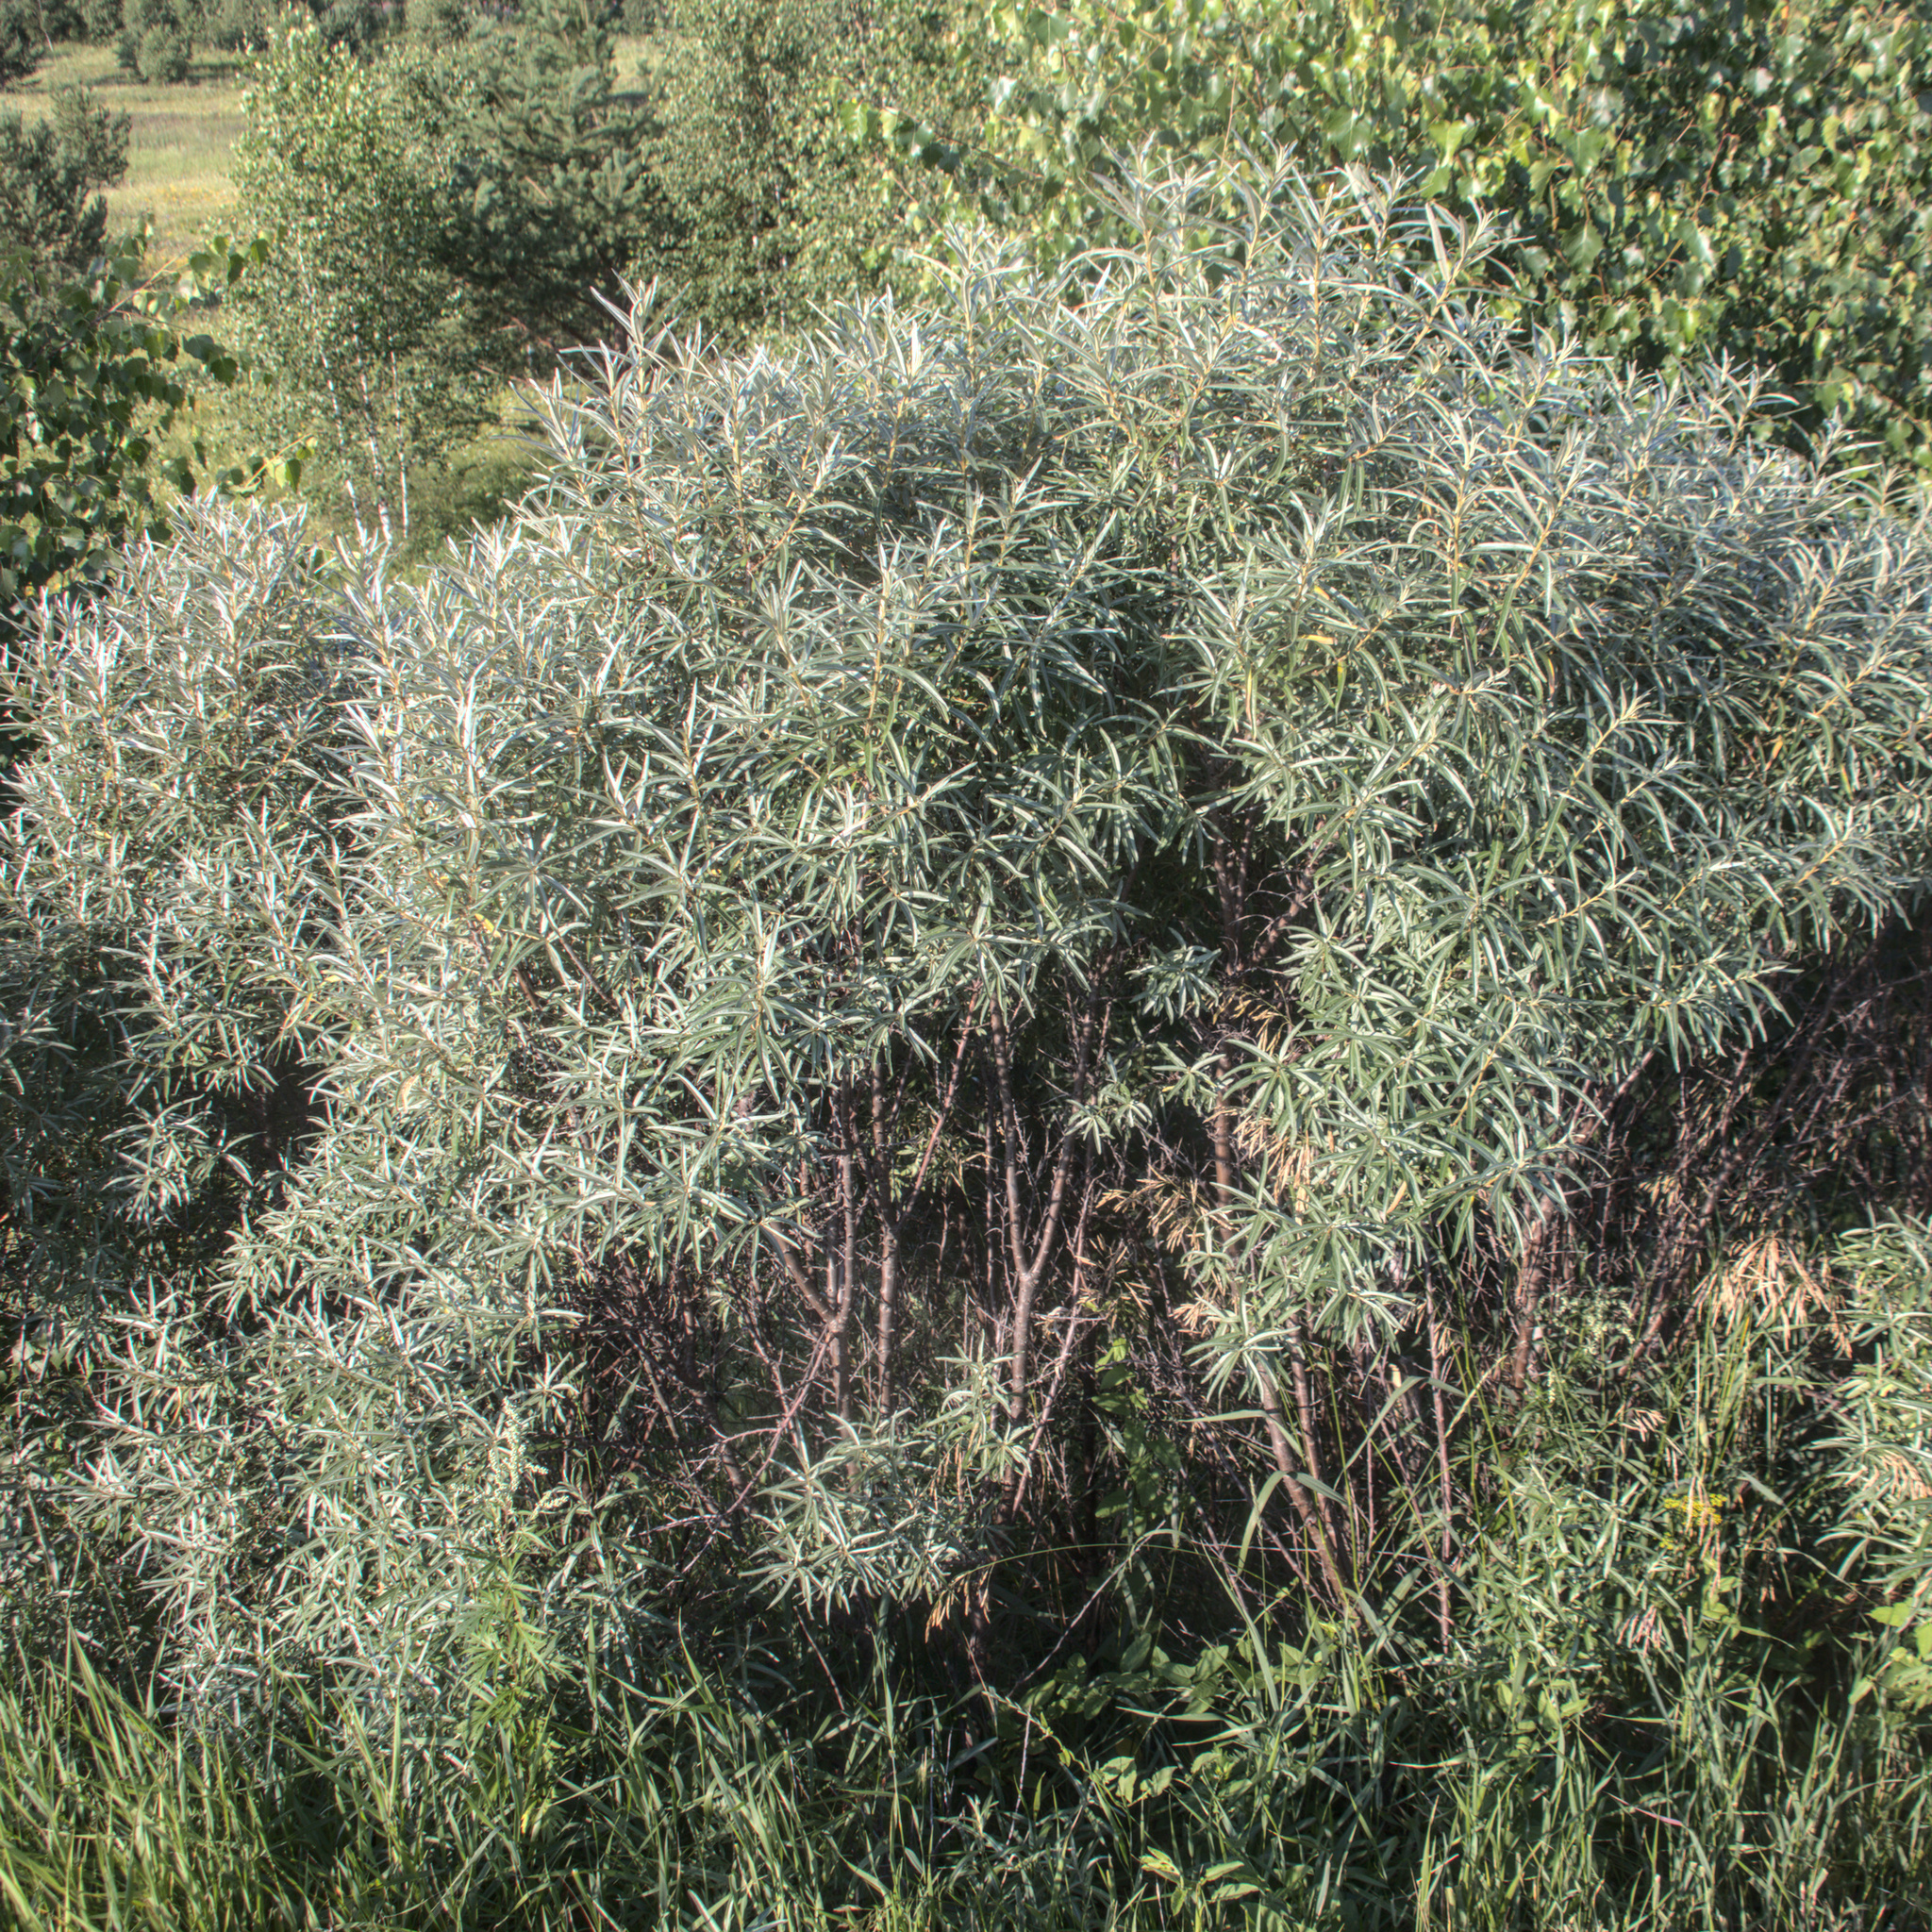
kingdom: Plantae
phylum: Tracheophyta
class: Magnoliopsida
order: Rosales
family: Elaeagnaceae
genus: Hippophae
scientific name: Hippophae rhamnoides
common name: Sea-buckthorn
